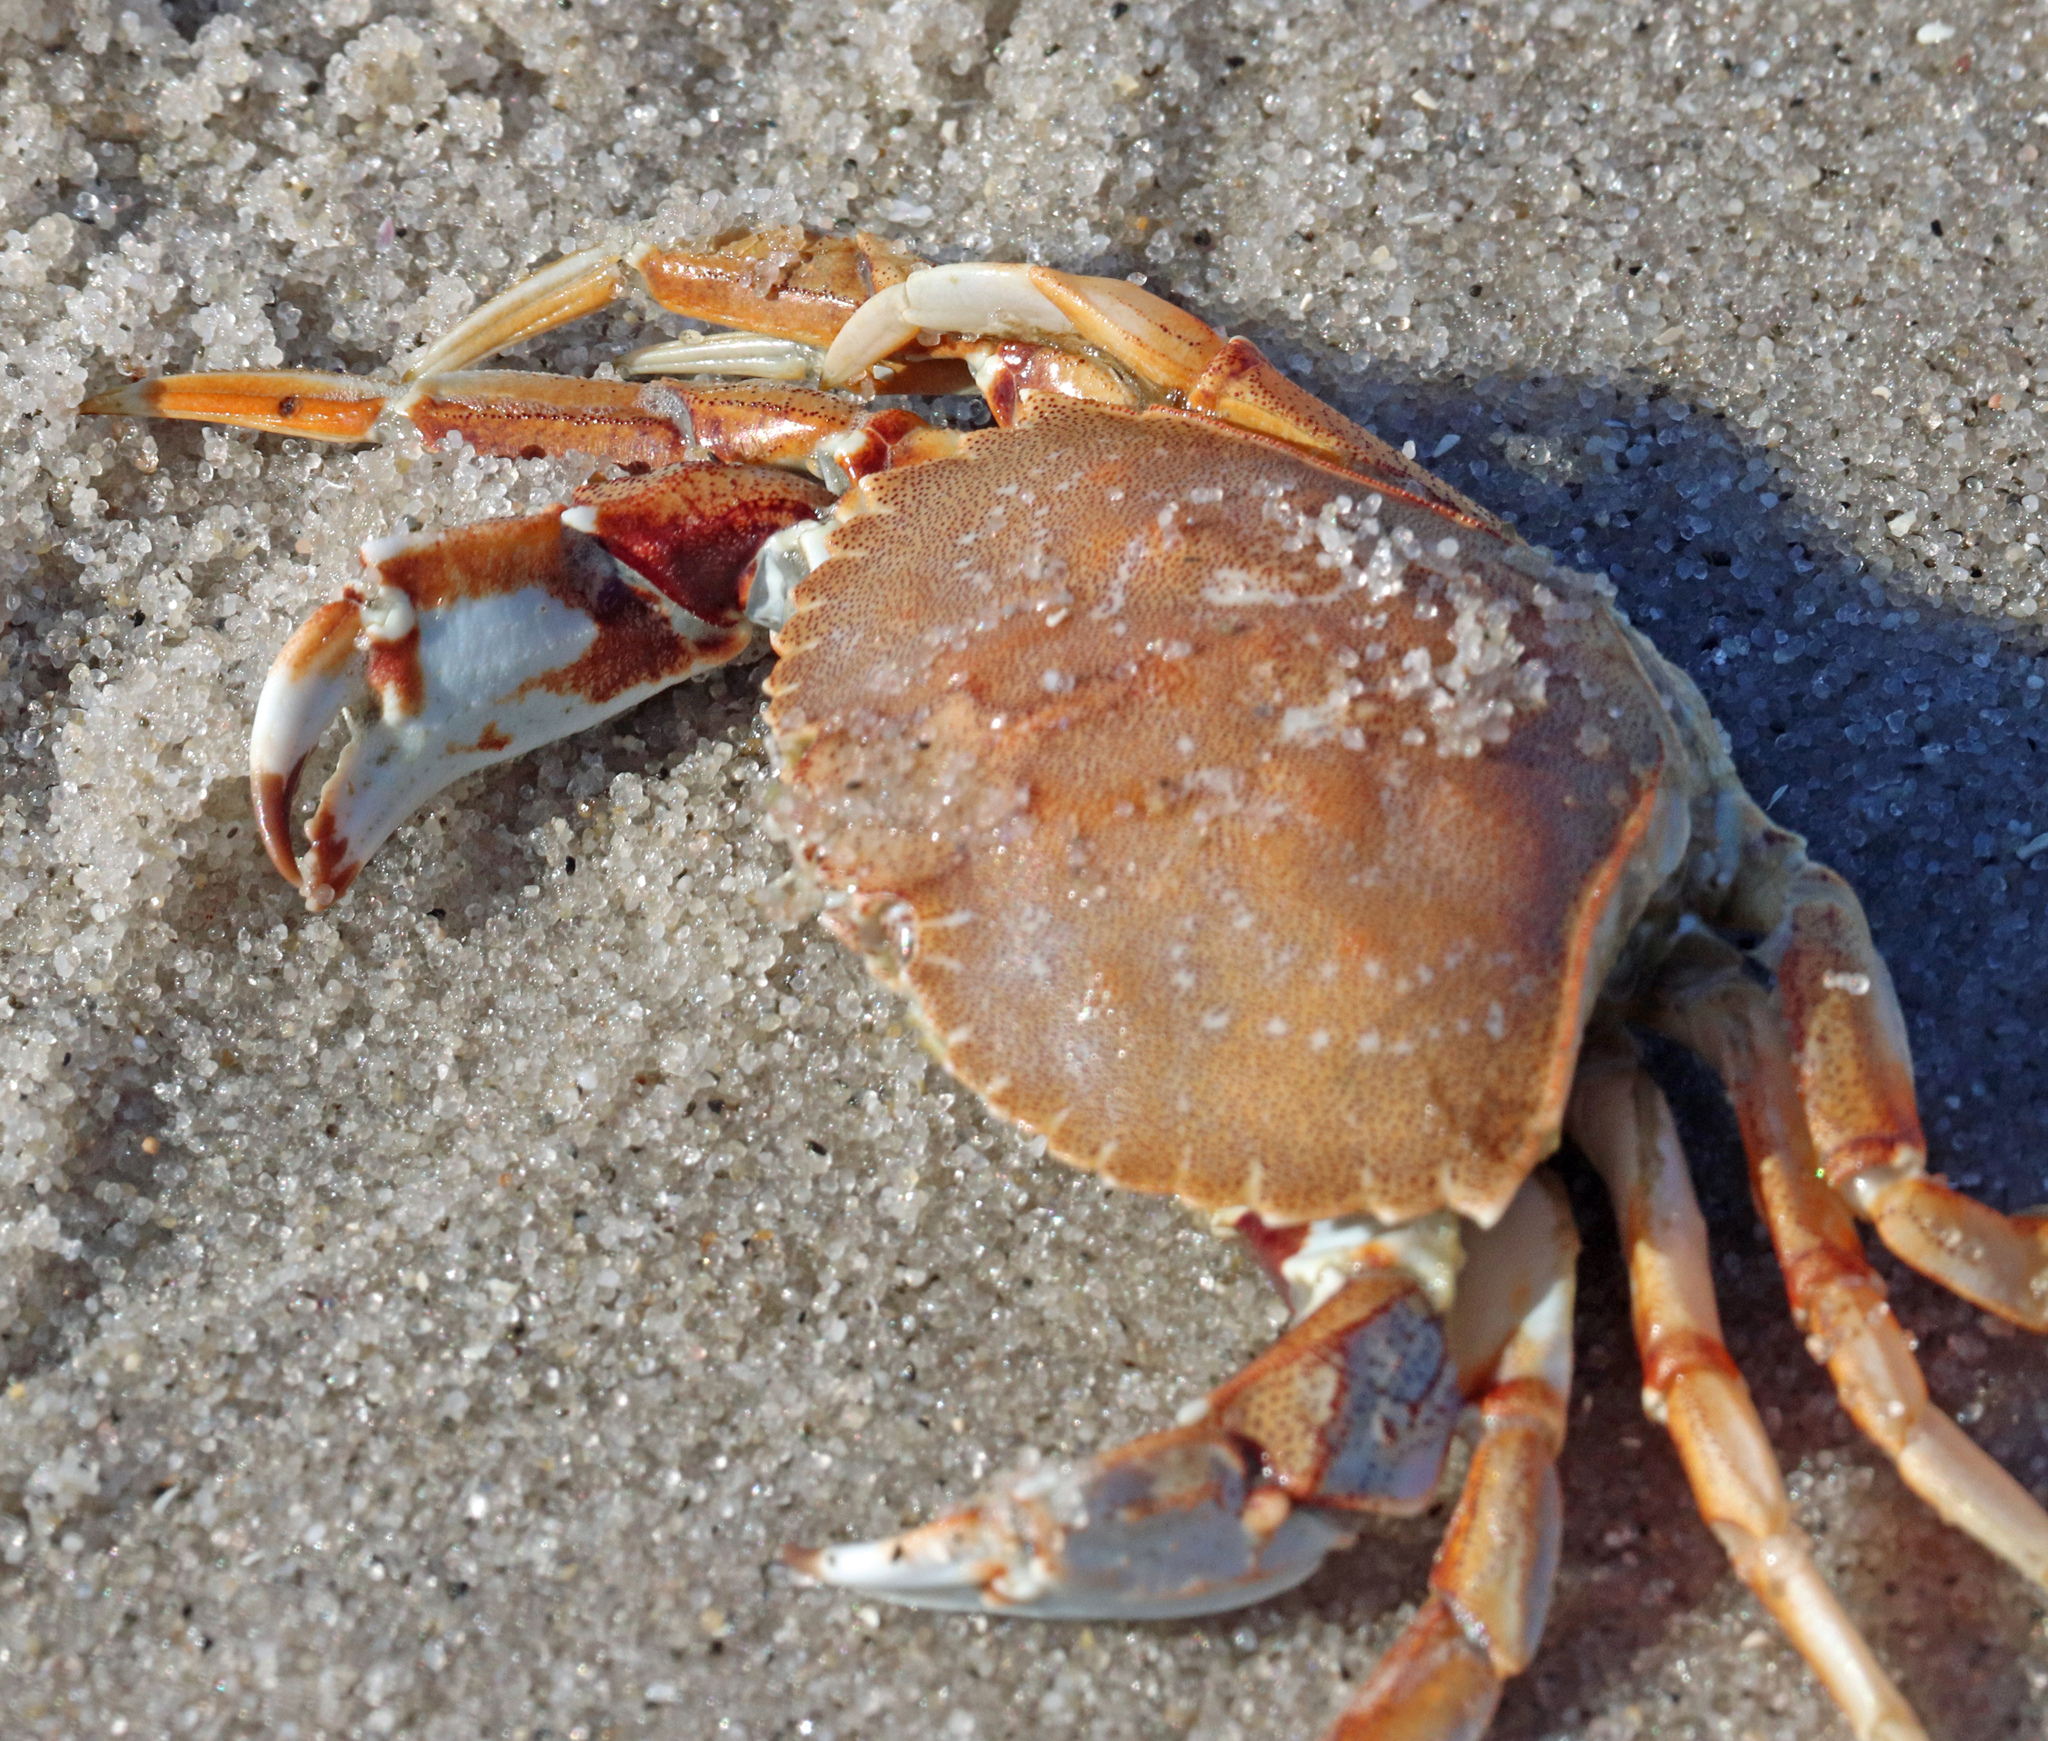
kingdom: Animalia
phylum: Arthropoda
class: Malacostraca
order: Decapoda
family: Cancridae
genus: Cancer
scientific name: Cancer irroratus
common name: Atlantic rock crab
